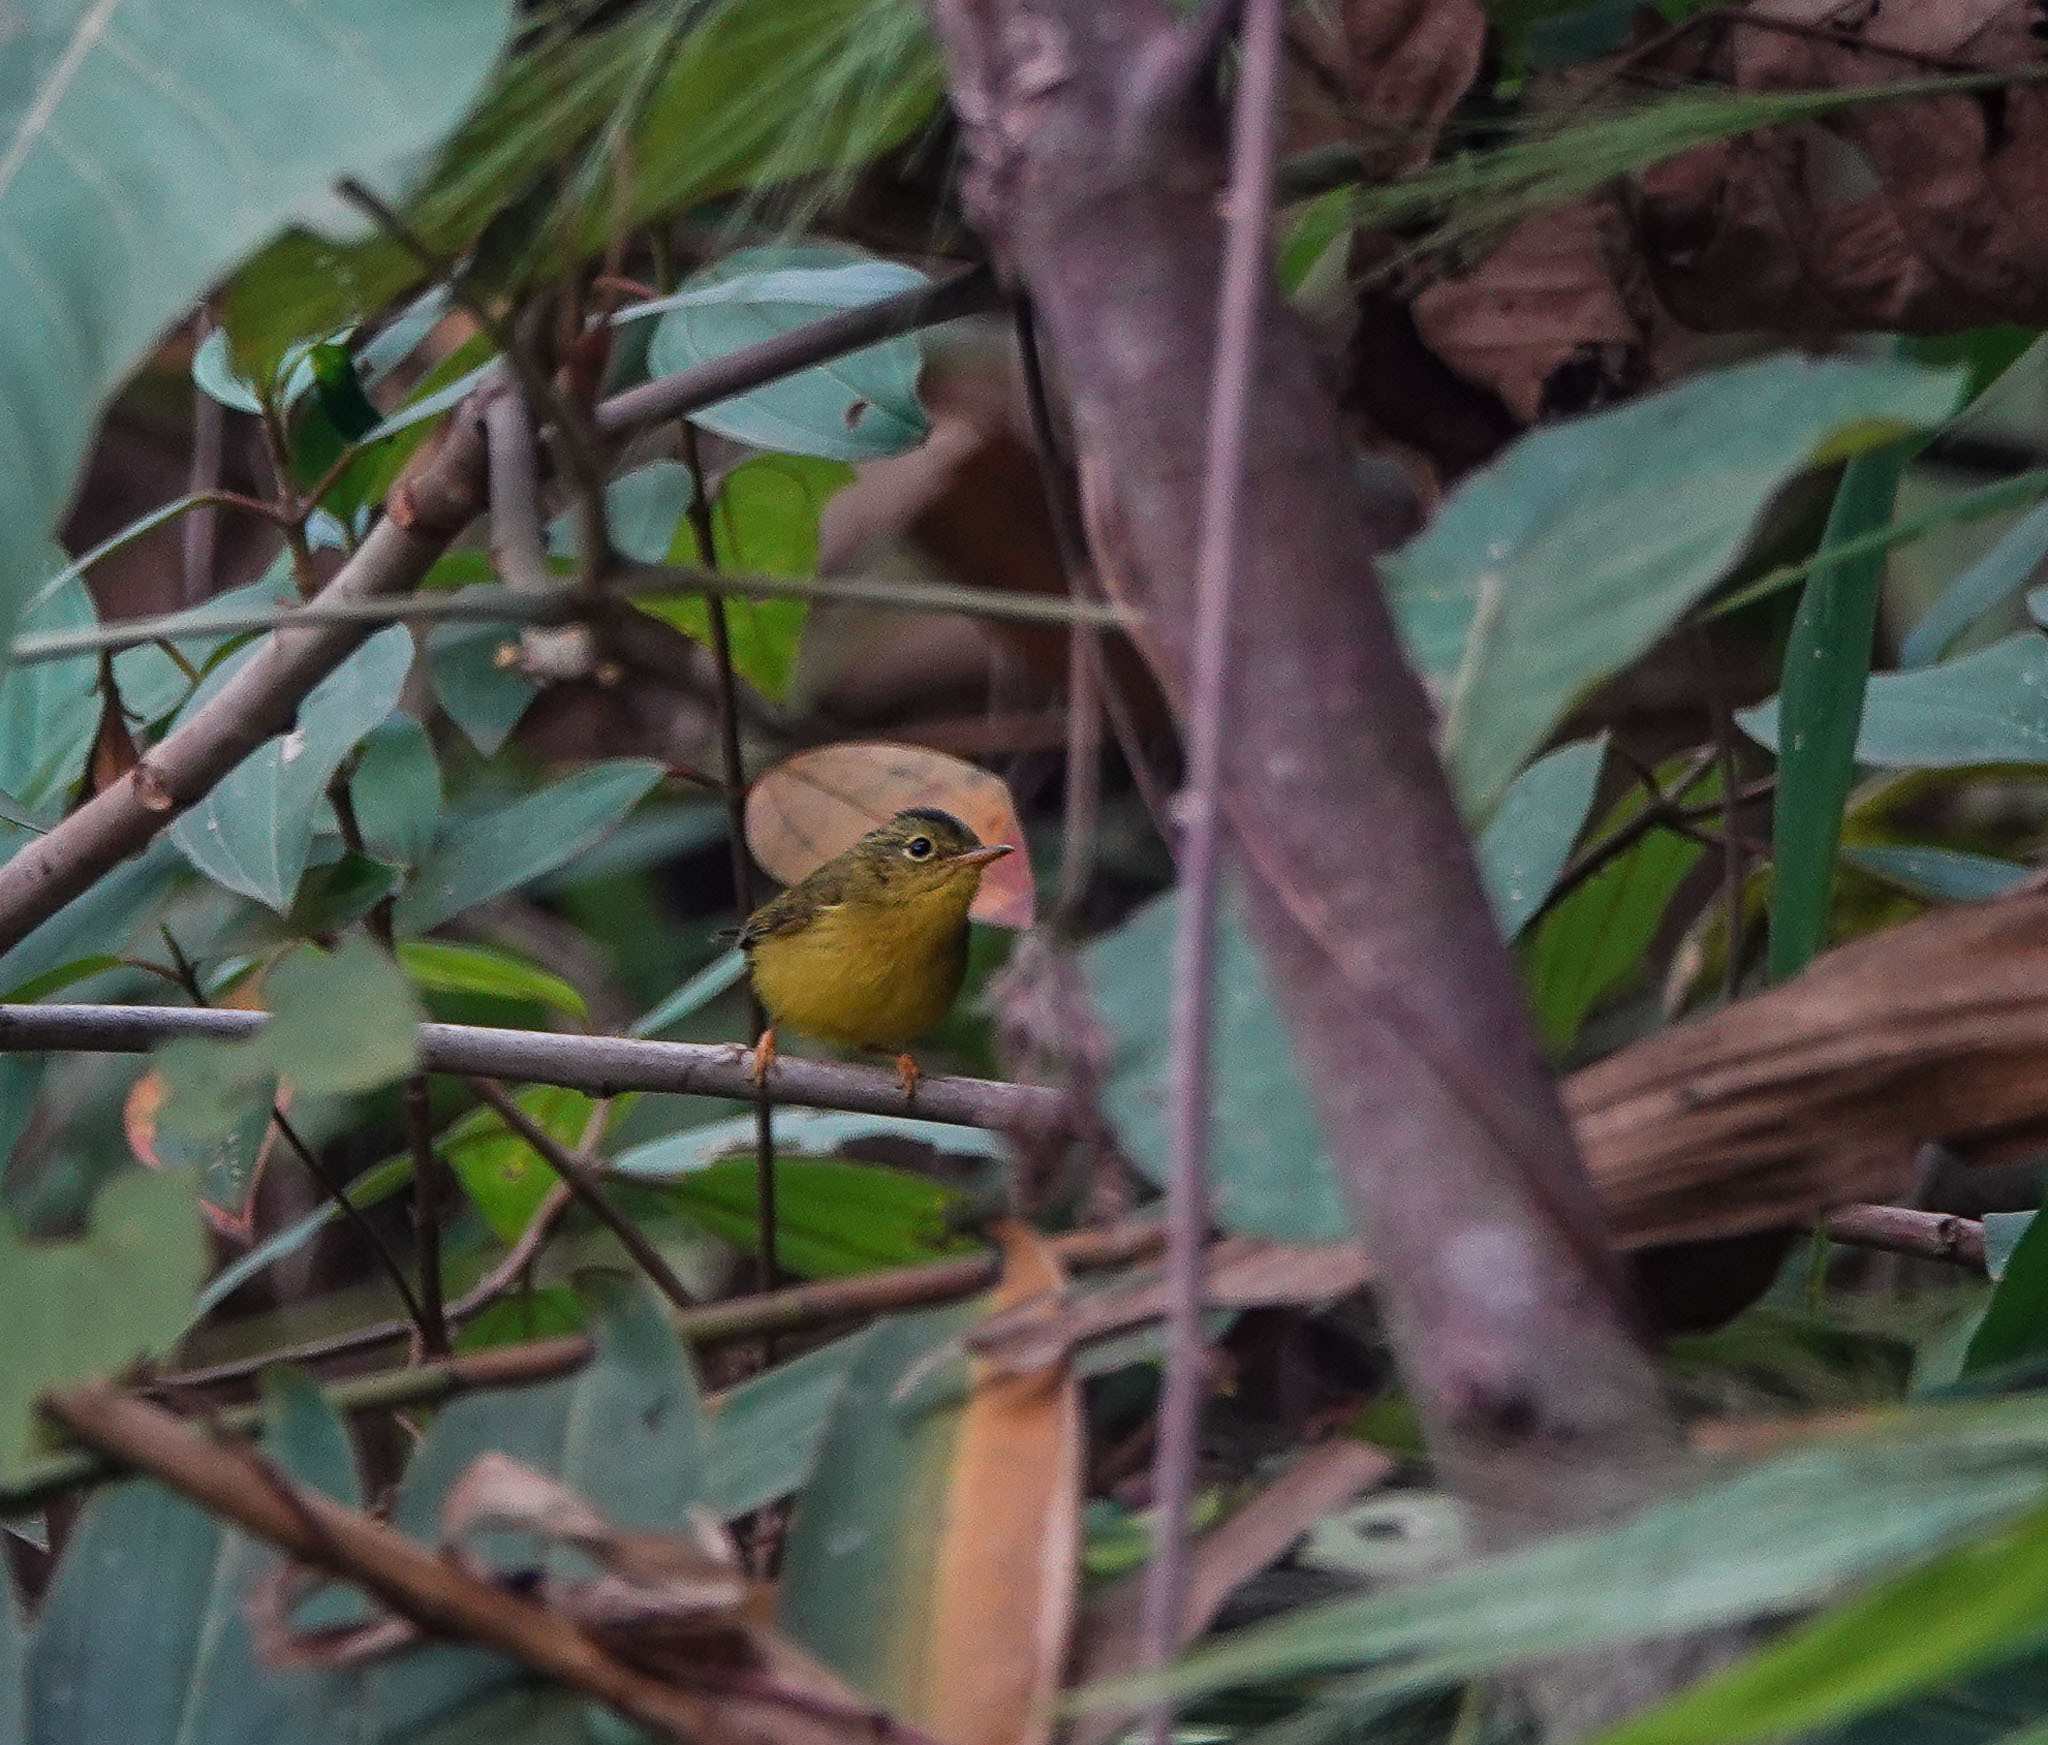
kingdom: Animalia
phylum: Chordata
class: Aves
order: Passeriformes
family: Phylloscopidae
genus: Seicercus
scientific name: Seicercus burkii
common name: Green-crowned warbler
